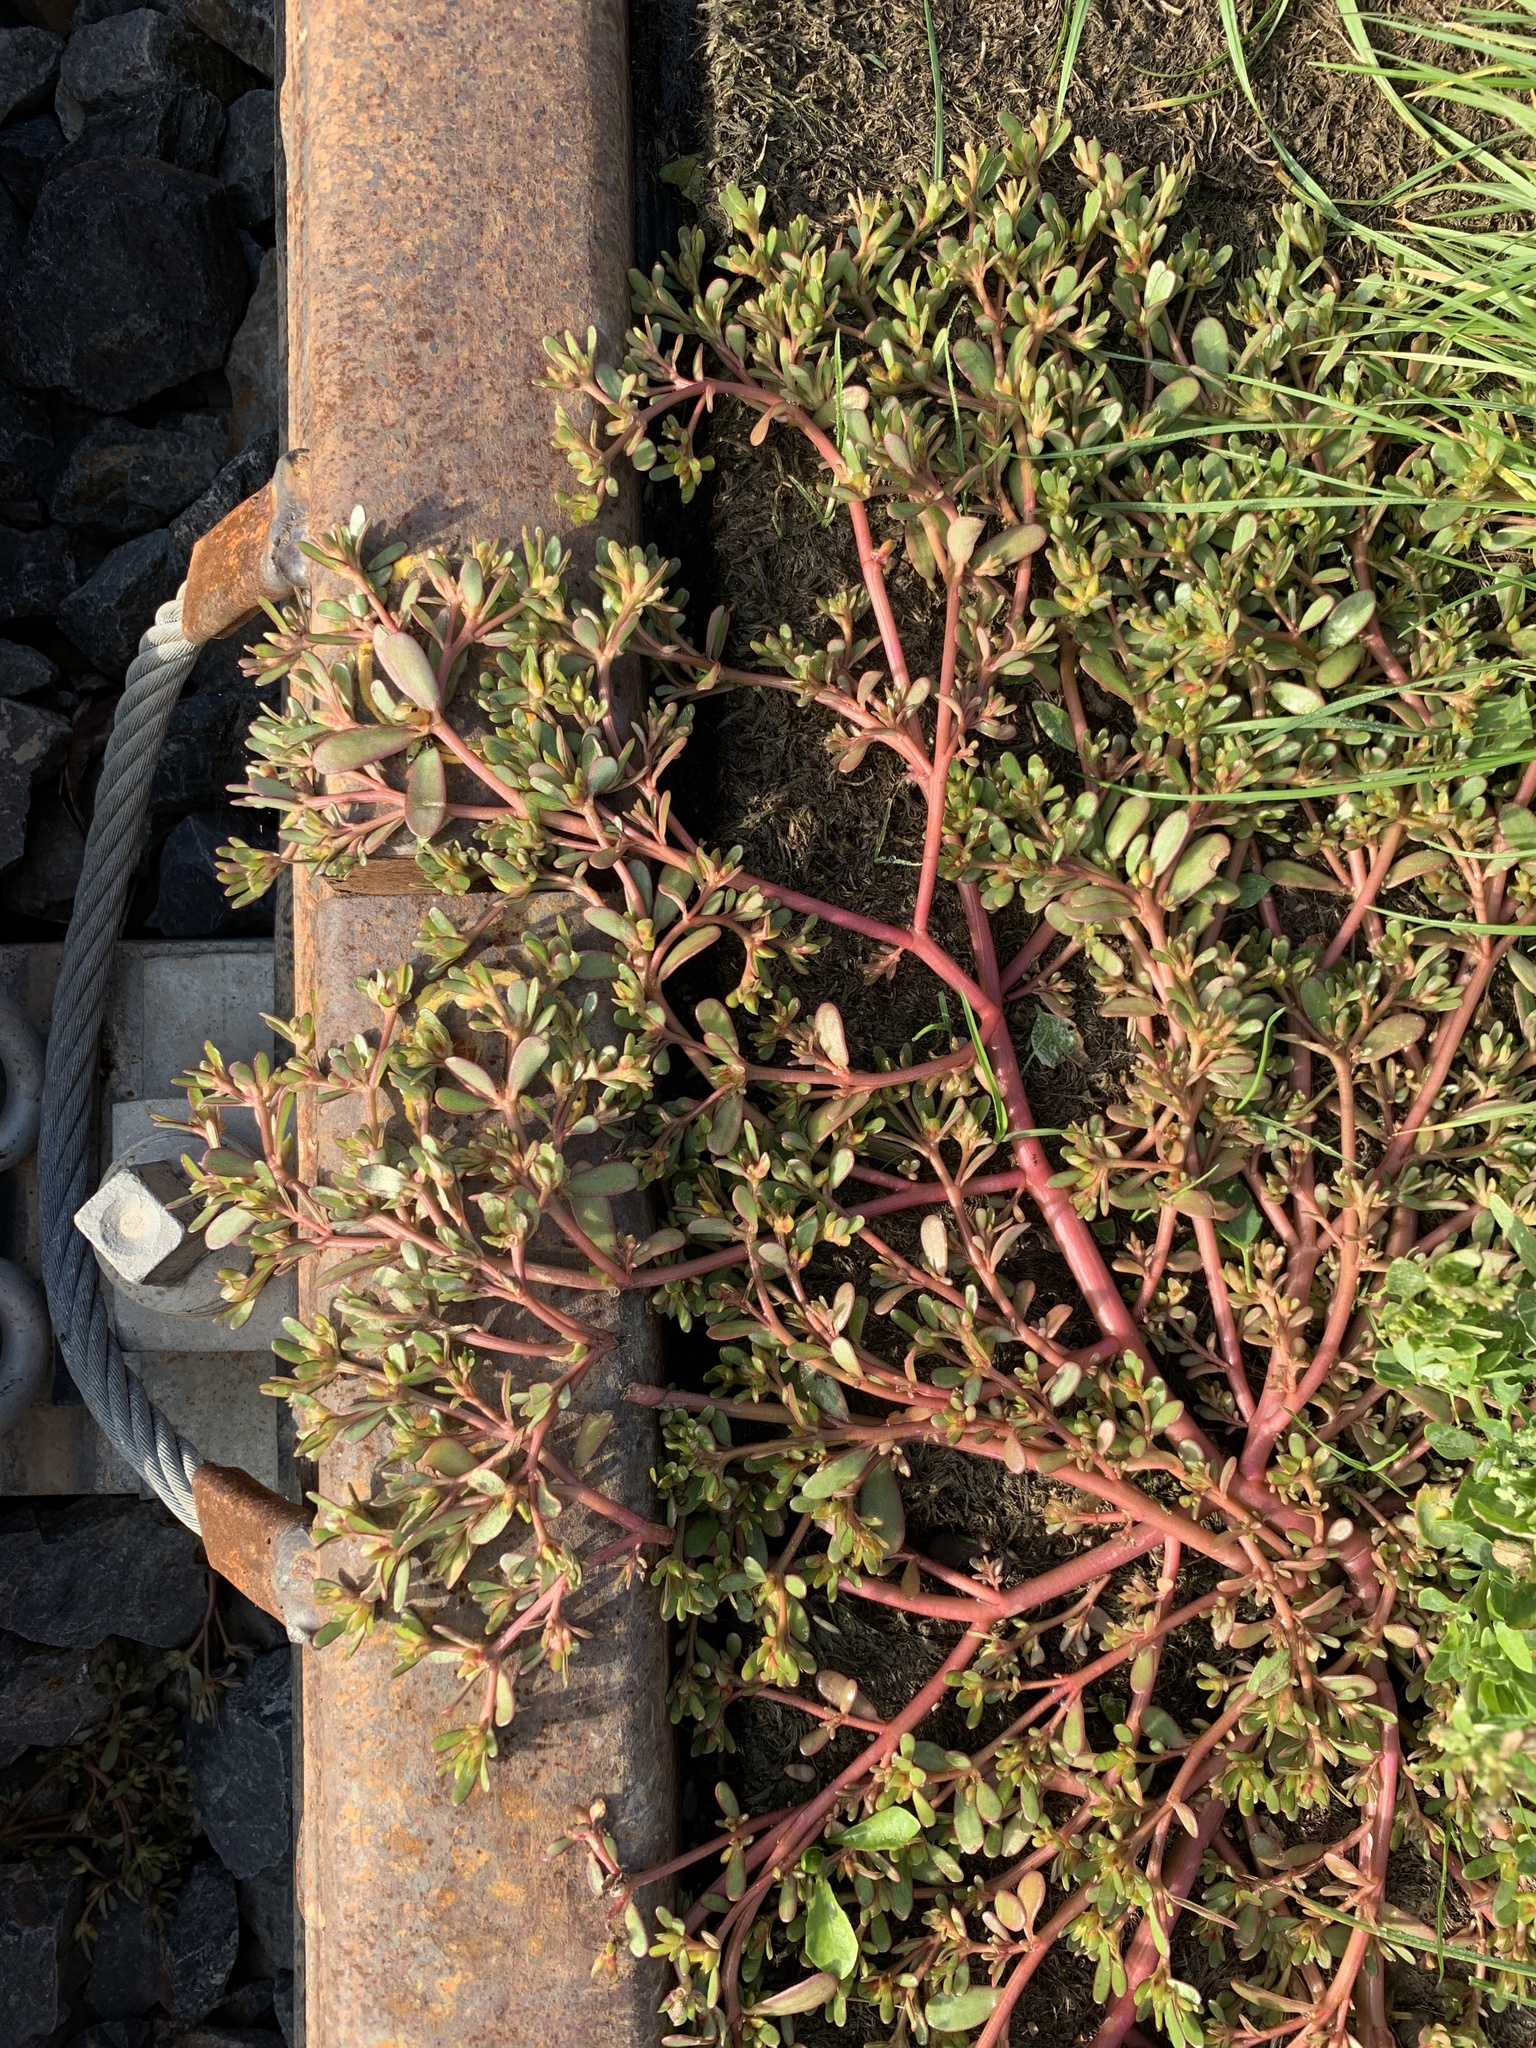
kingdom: Plantae
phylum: Tracheophyta
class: Magnoliopsida
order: Caryophyllales
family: Portulacaceae
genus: Portulaca
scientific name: Portulaca oleracea
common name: Common purslane
